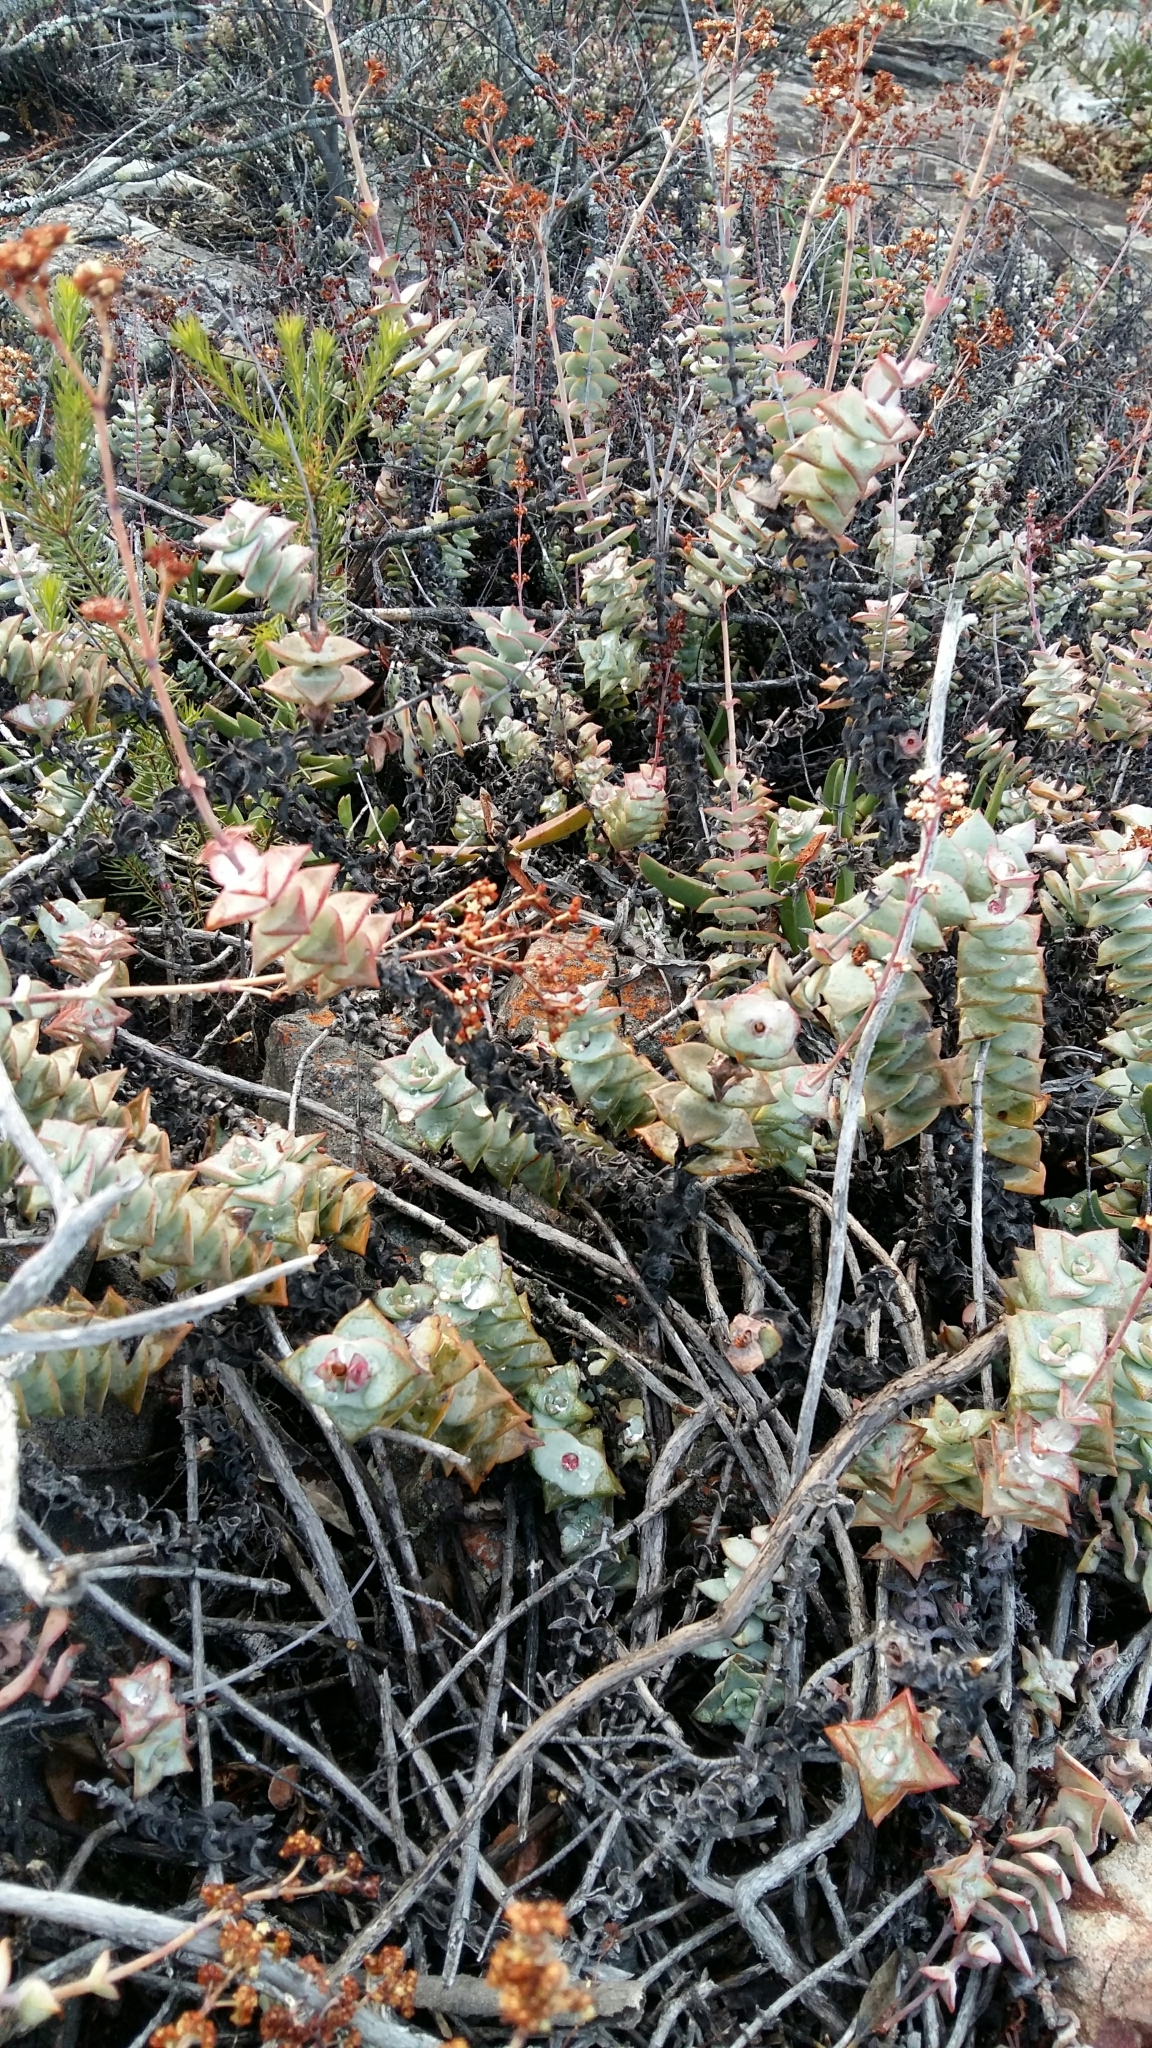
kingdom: Plantae
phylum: Tracheophyta
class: Magnoliopsida
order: Saxifragales
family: Crassulaceae
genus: Crassula
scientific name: Crassula perforata
